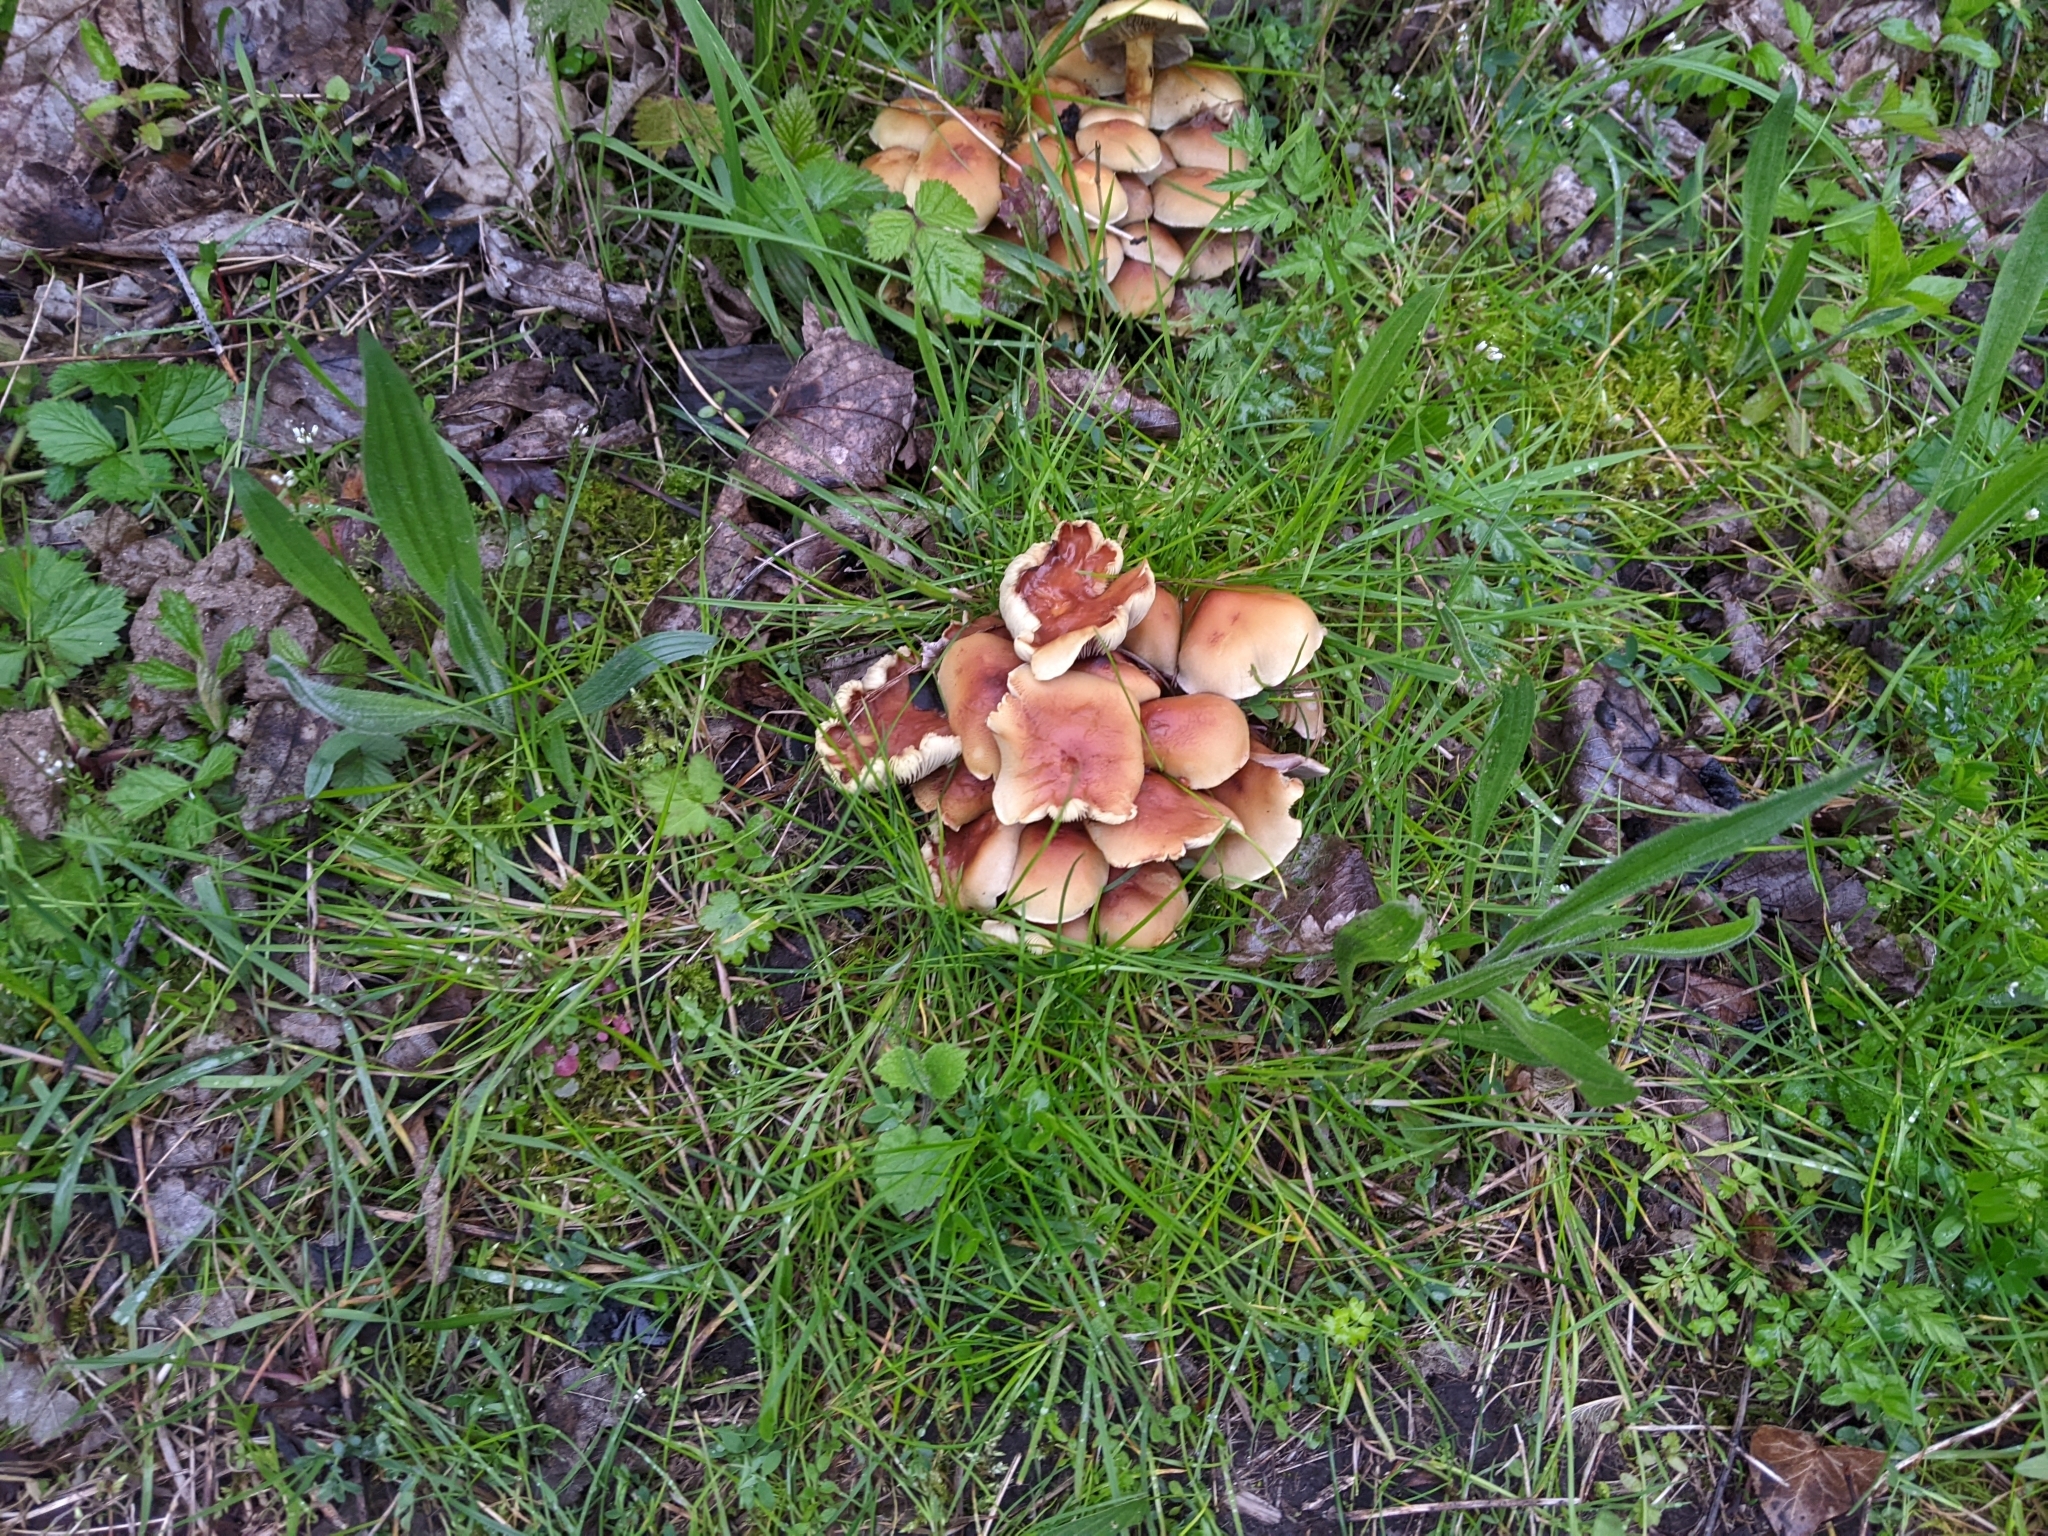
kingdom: Fungi
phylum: Basidiomycota
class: Agaricomycetes
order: Agaricales
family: Strophariaceae
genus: Hypholoma
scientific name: Hypholoma fasciculare
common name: Sulphur tuft
